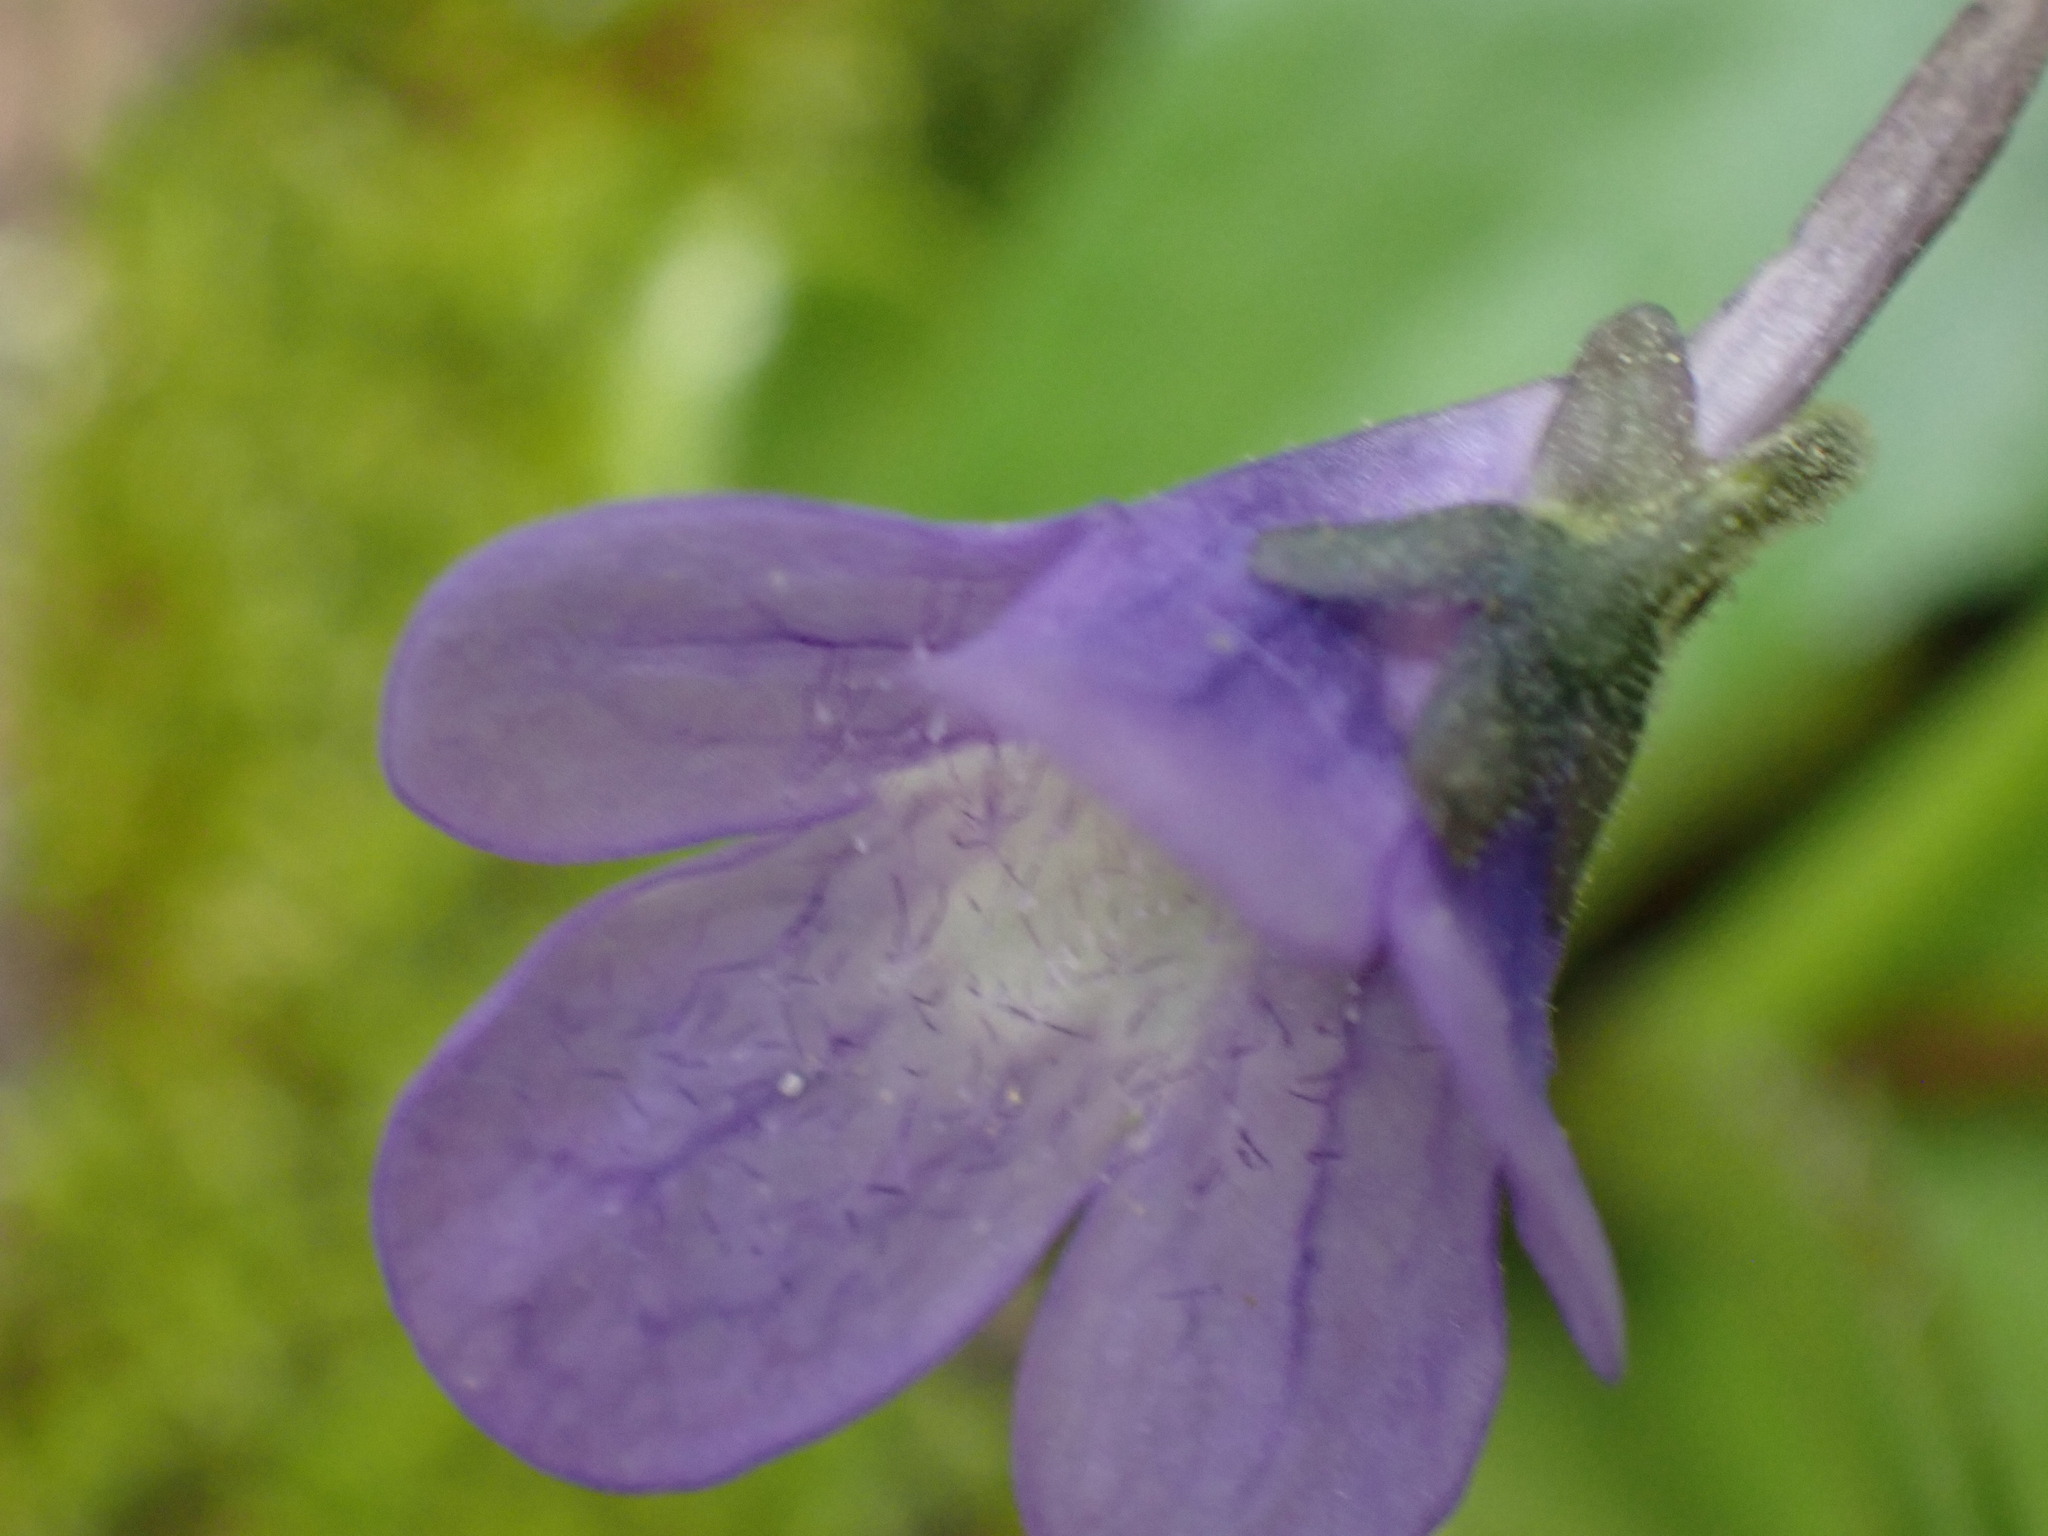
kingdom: Plantae
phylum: Tracheophyta
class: Magnoliopsida
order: Lamiales
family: Lentibulariaceae
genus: Pinguicula
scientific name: Pinguicula macroceras
